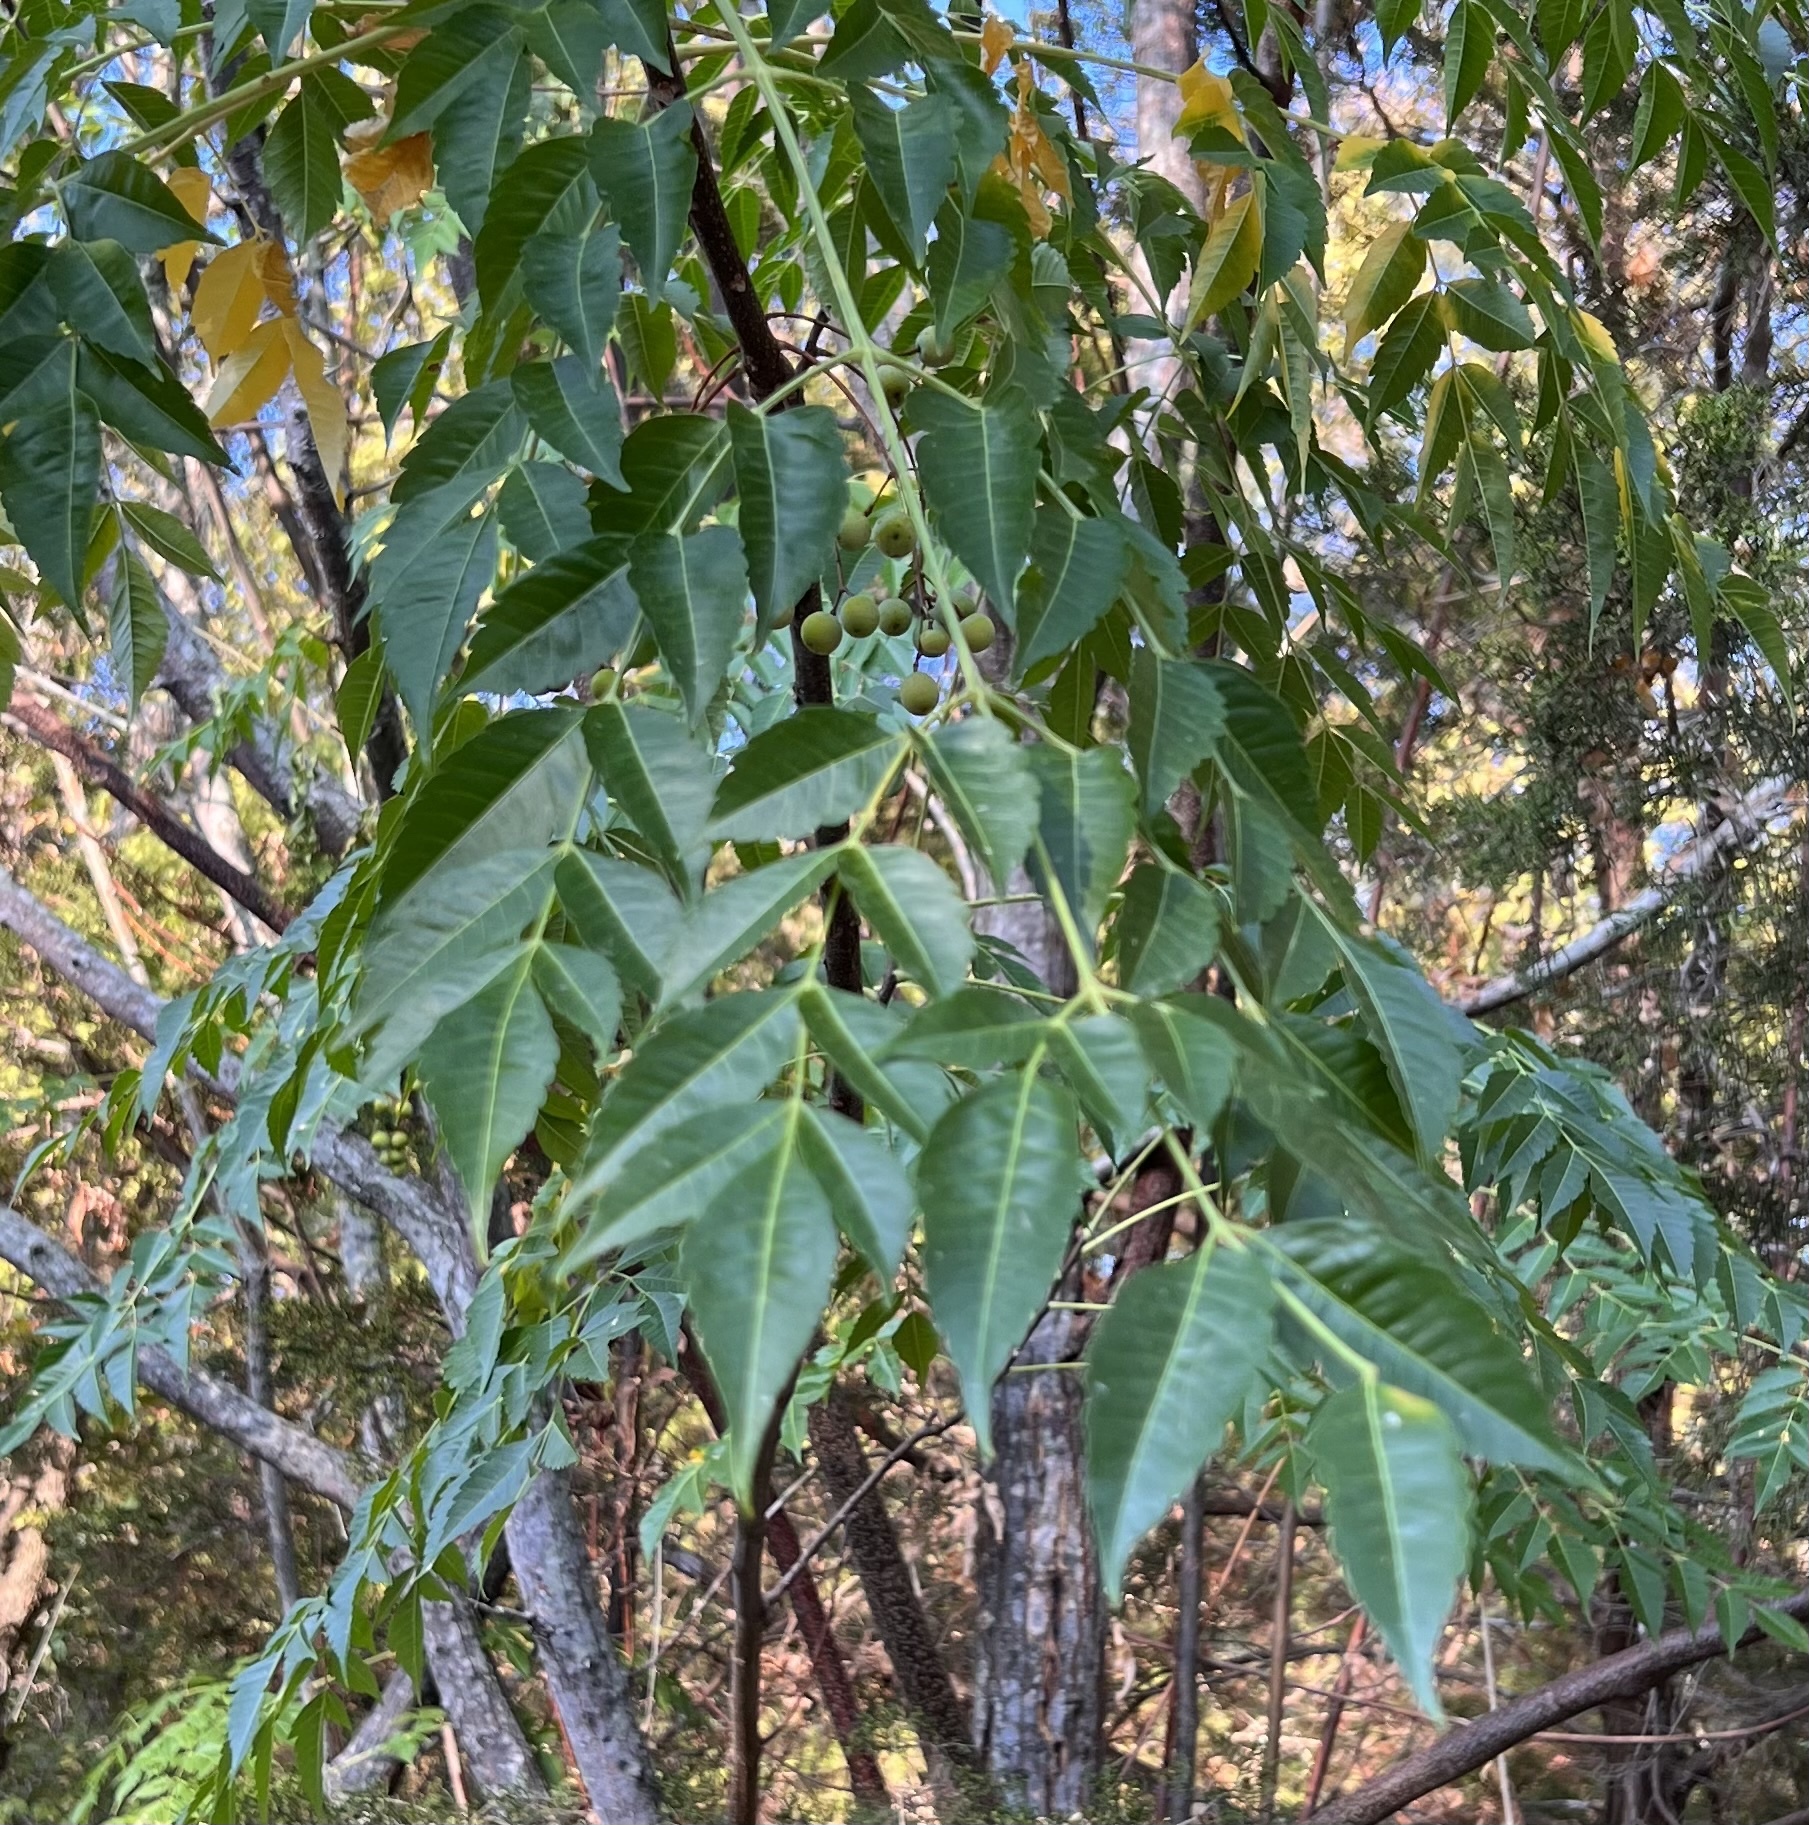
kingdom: Plantae
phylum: Tracheophyta
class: Magnoliopsida
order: Sapindales
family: Meliaceae
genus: Melia
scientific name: Melia azedarach
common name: Chinaberrytree
